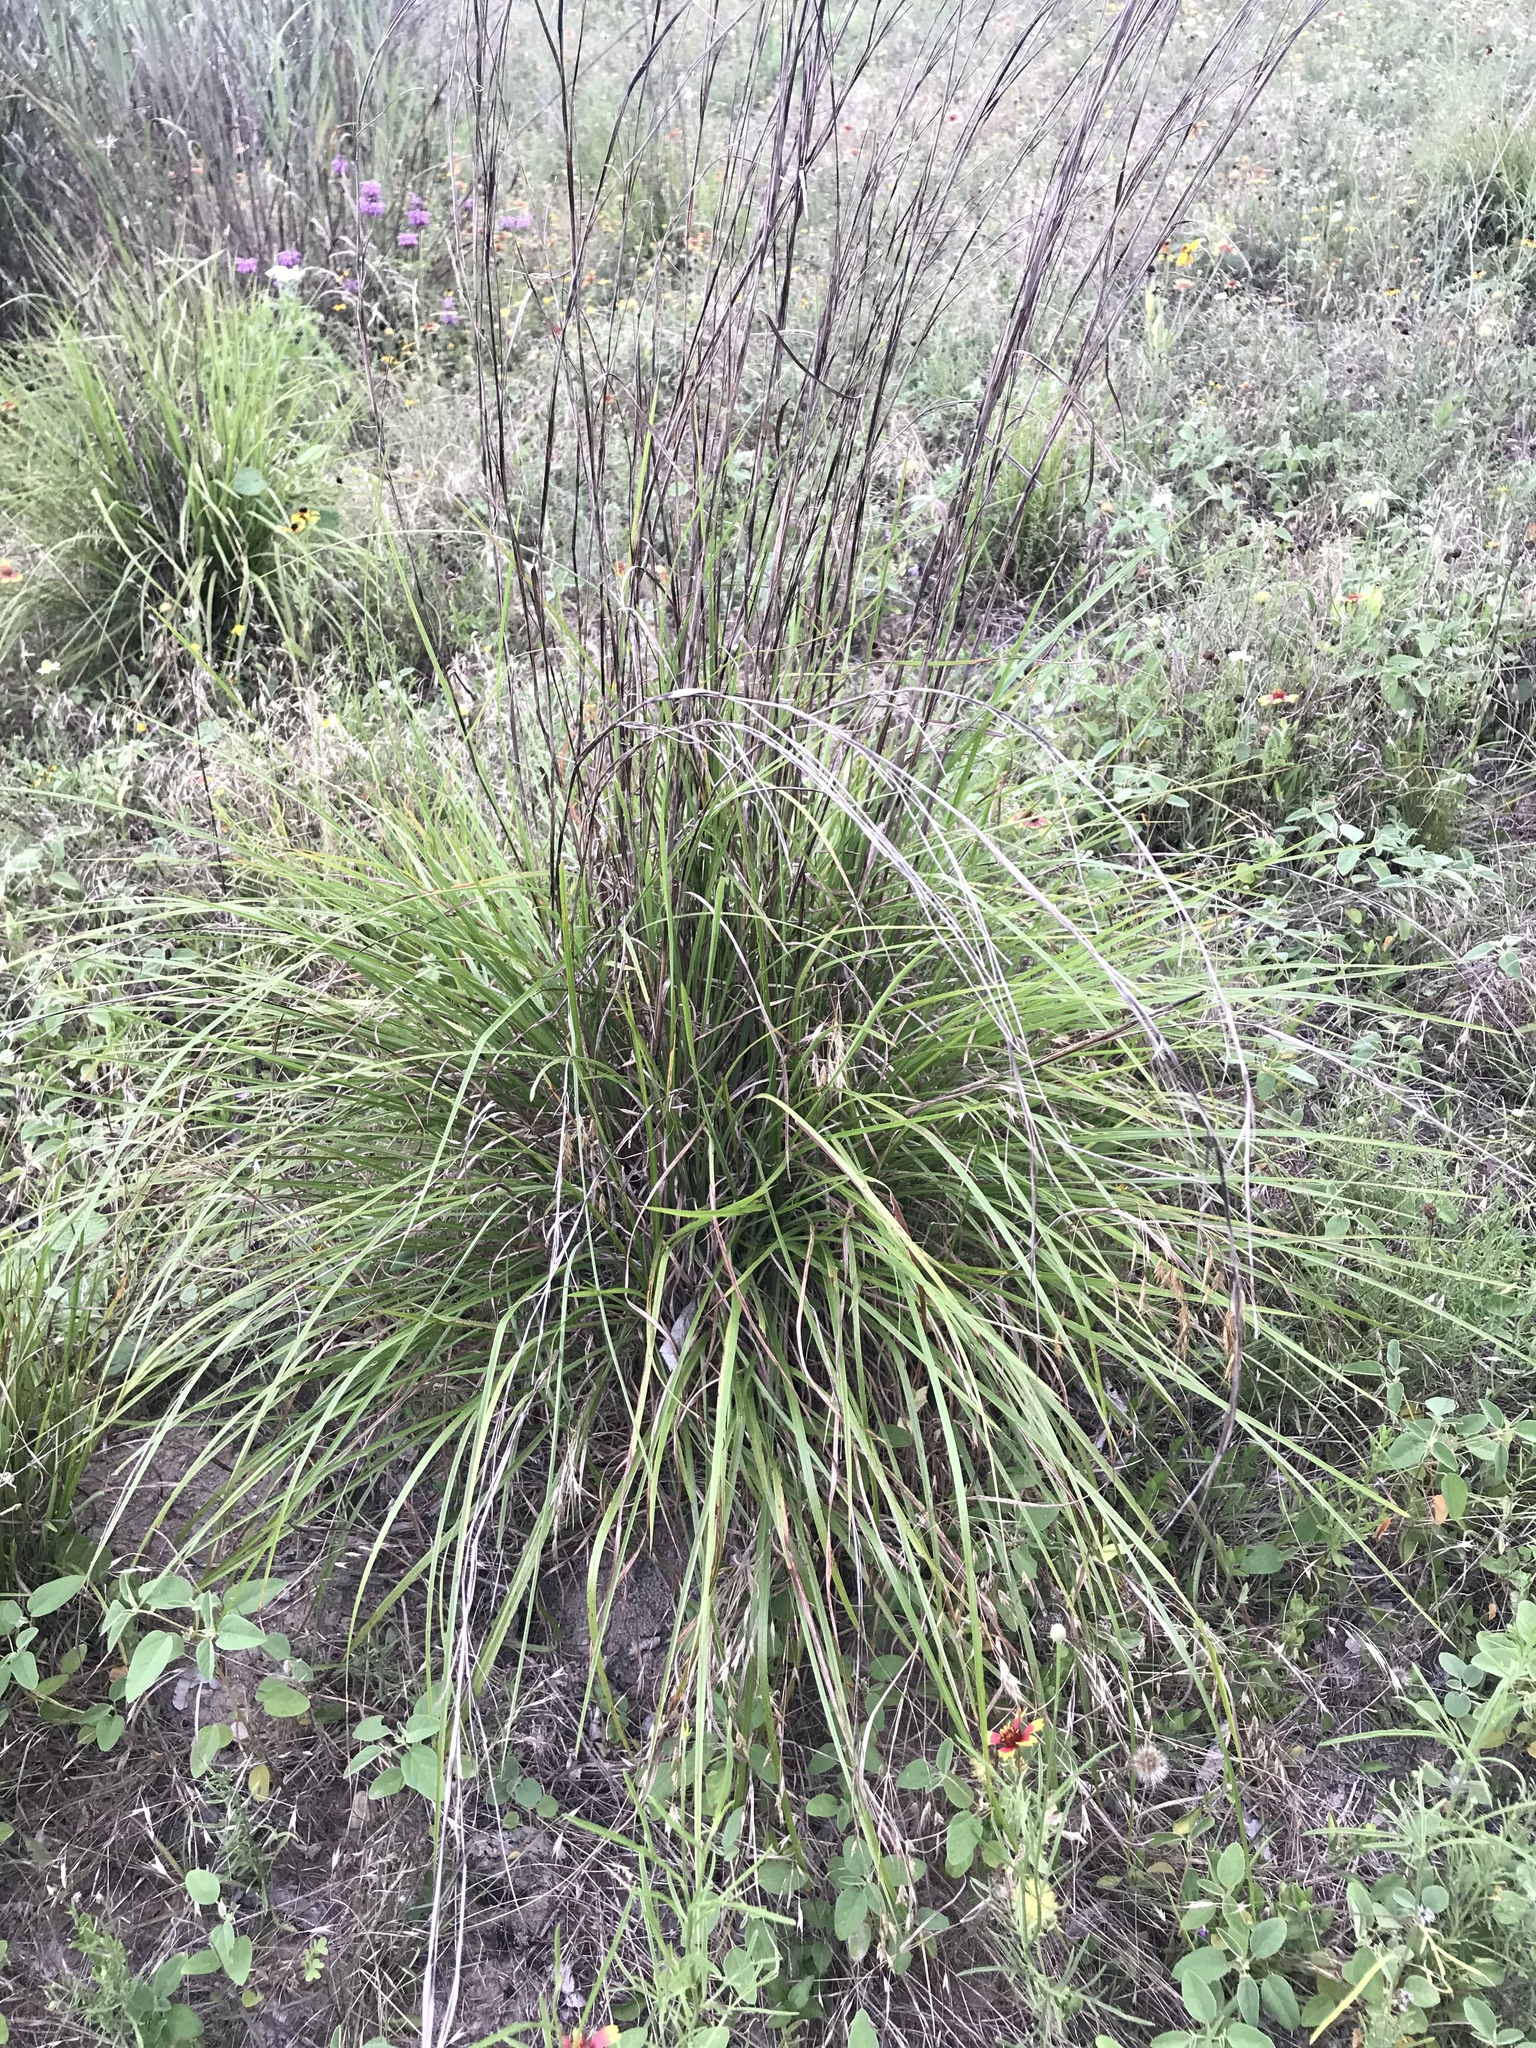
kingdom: Plantae
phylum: Tracheophyta
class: Liliopsida
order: Poales
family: Poaceae
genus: Schizachyrium
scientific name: Schizachyrium scoparium
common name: Little bluestem
